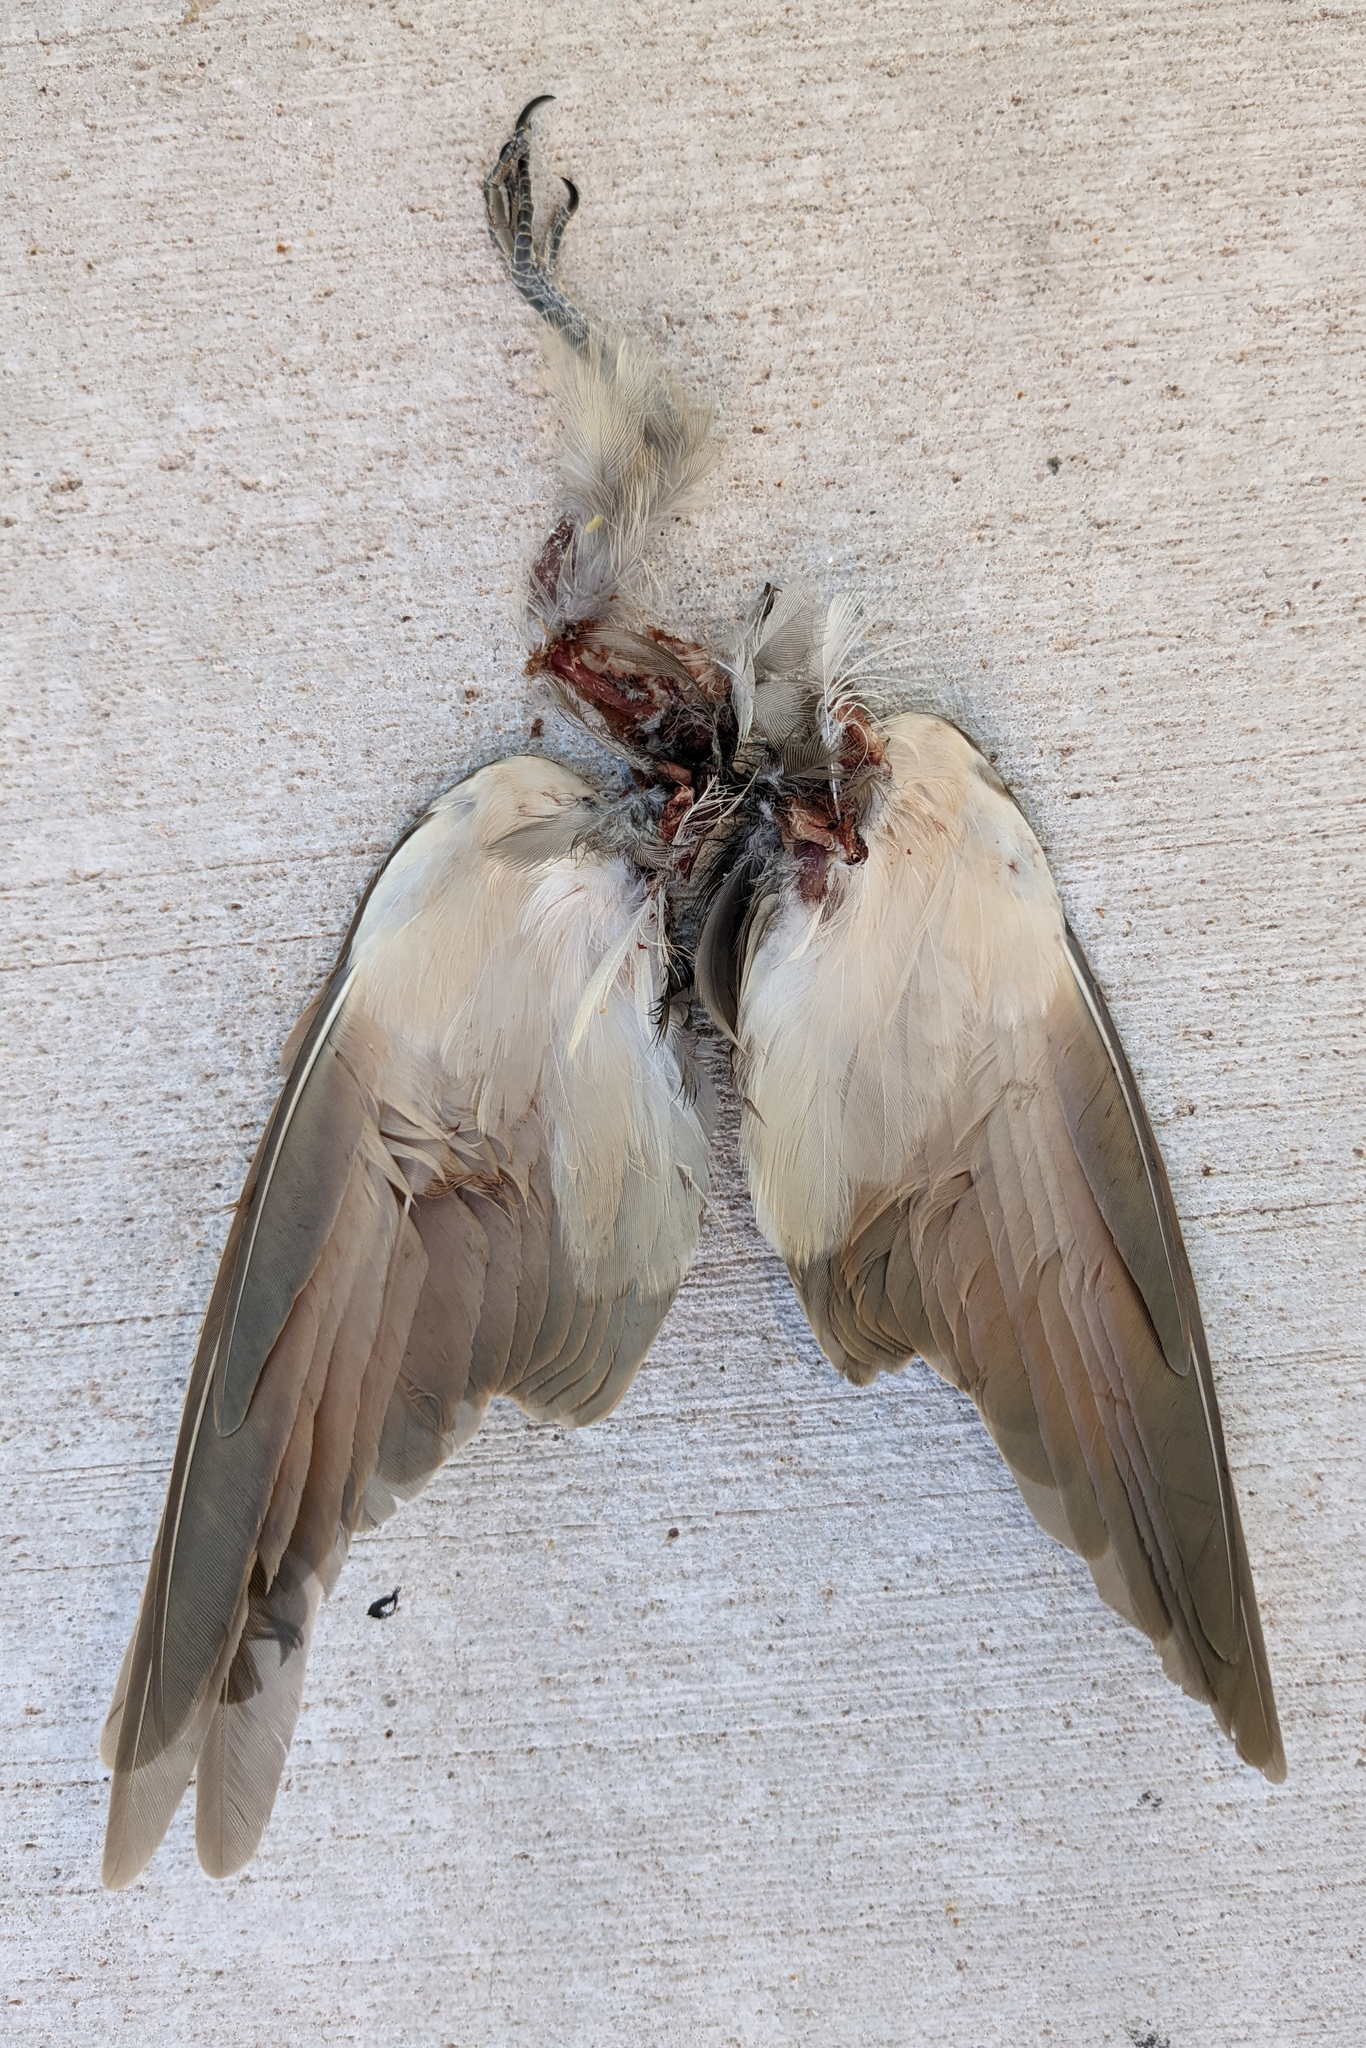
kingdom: Animalia
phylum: Chordata
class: Aves
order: Cuculiformes
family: Cuculidae
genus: Coccyzus
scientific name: Coccyzus americanus
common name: Yellow-billed cuckoo
